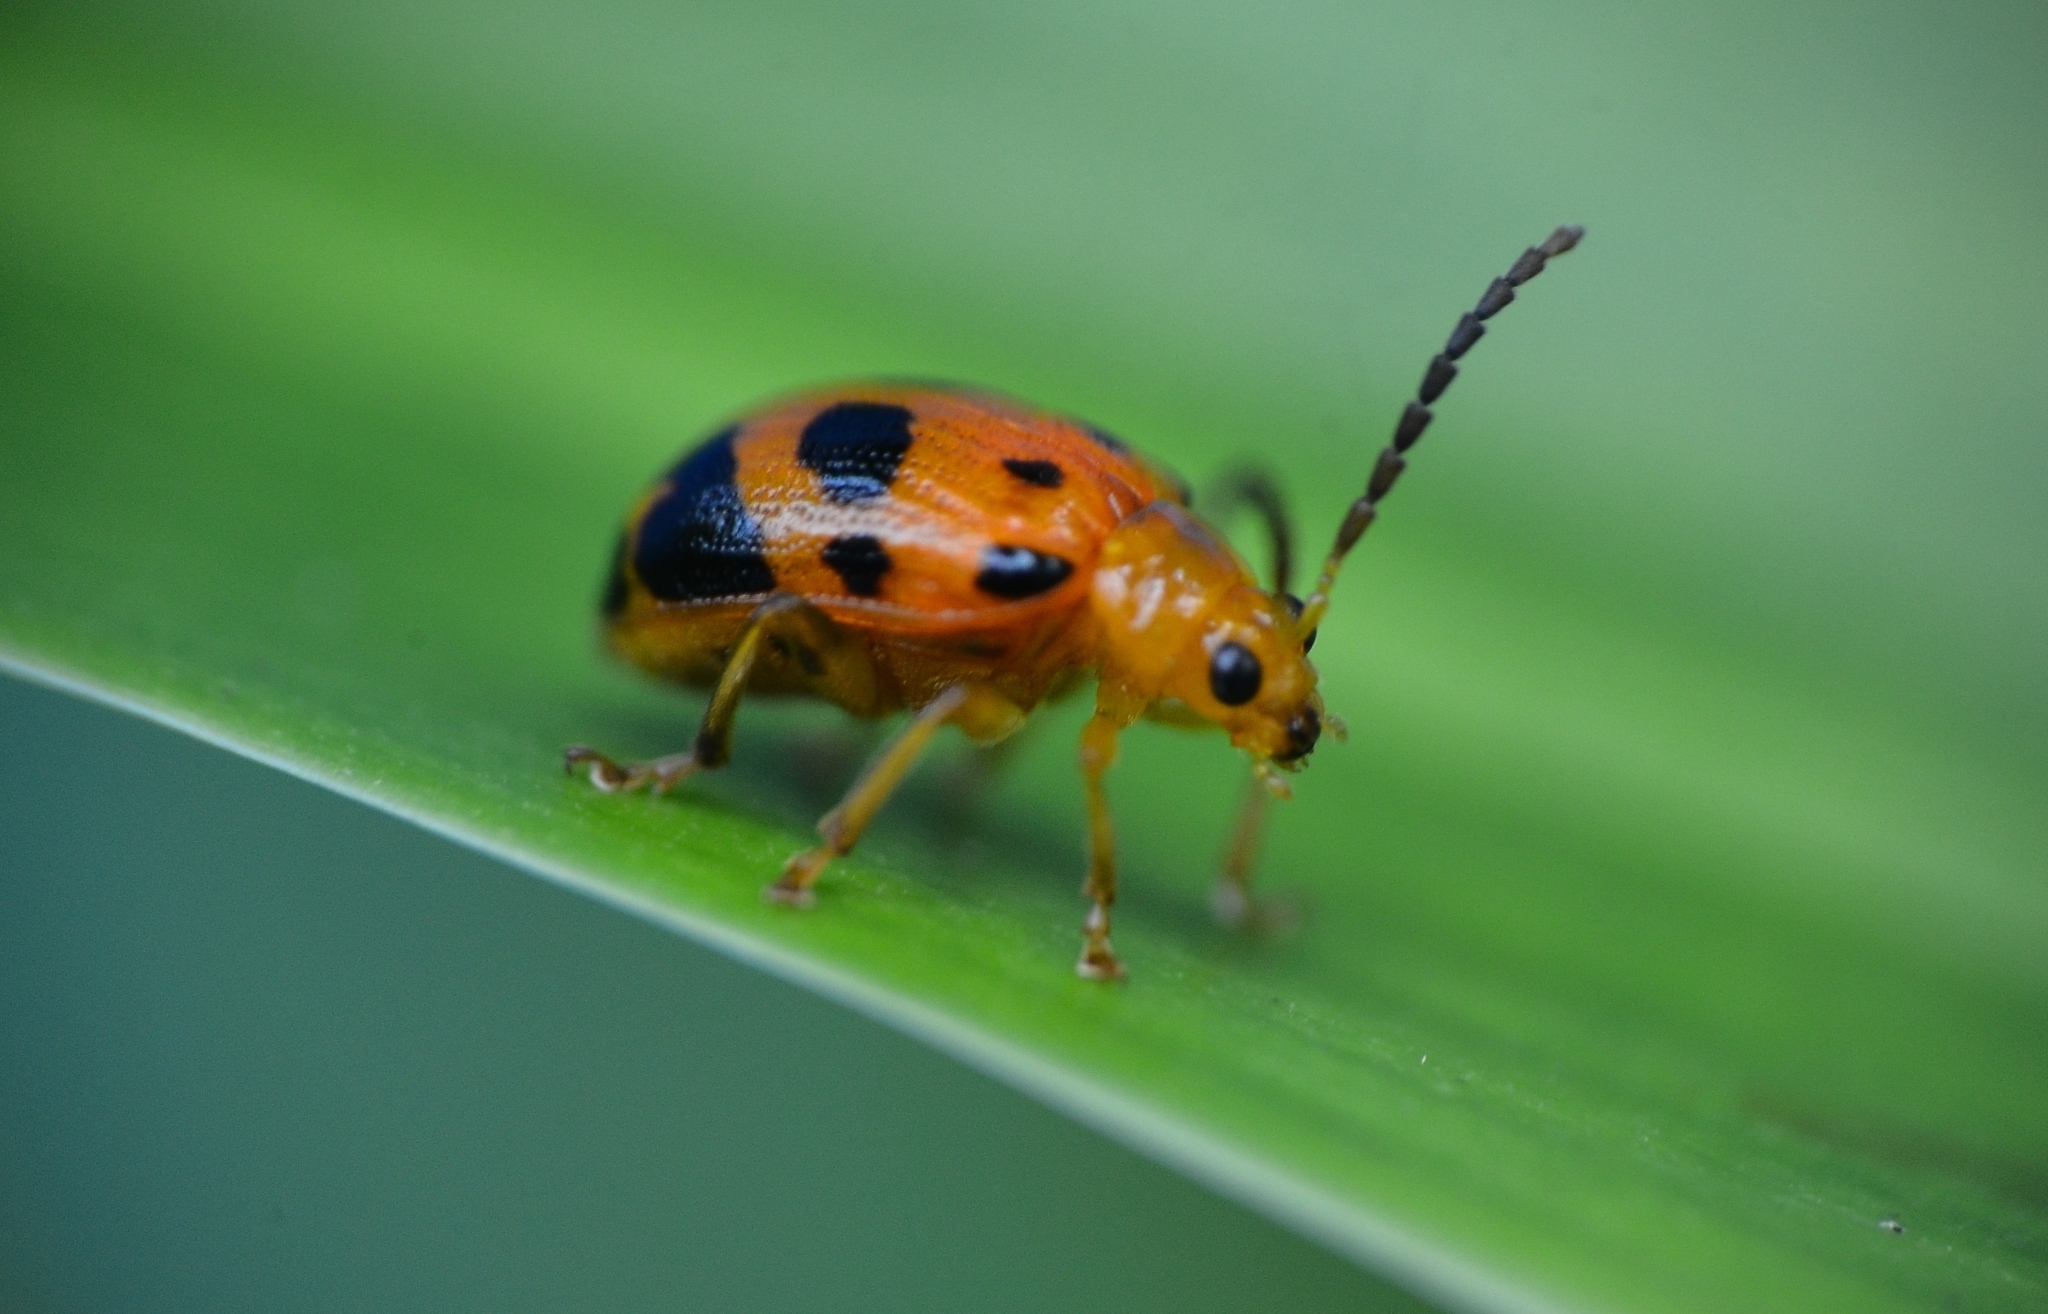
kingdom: Animalia
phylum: Arthropoda
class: Insecta
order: Coleoptera
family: Chrysomelidae
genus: Sphenoraia
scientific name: Sphenoraia
